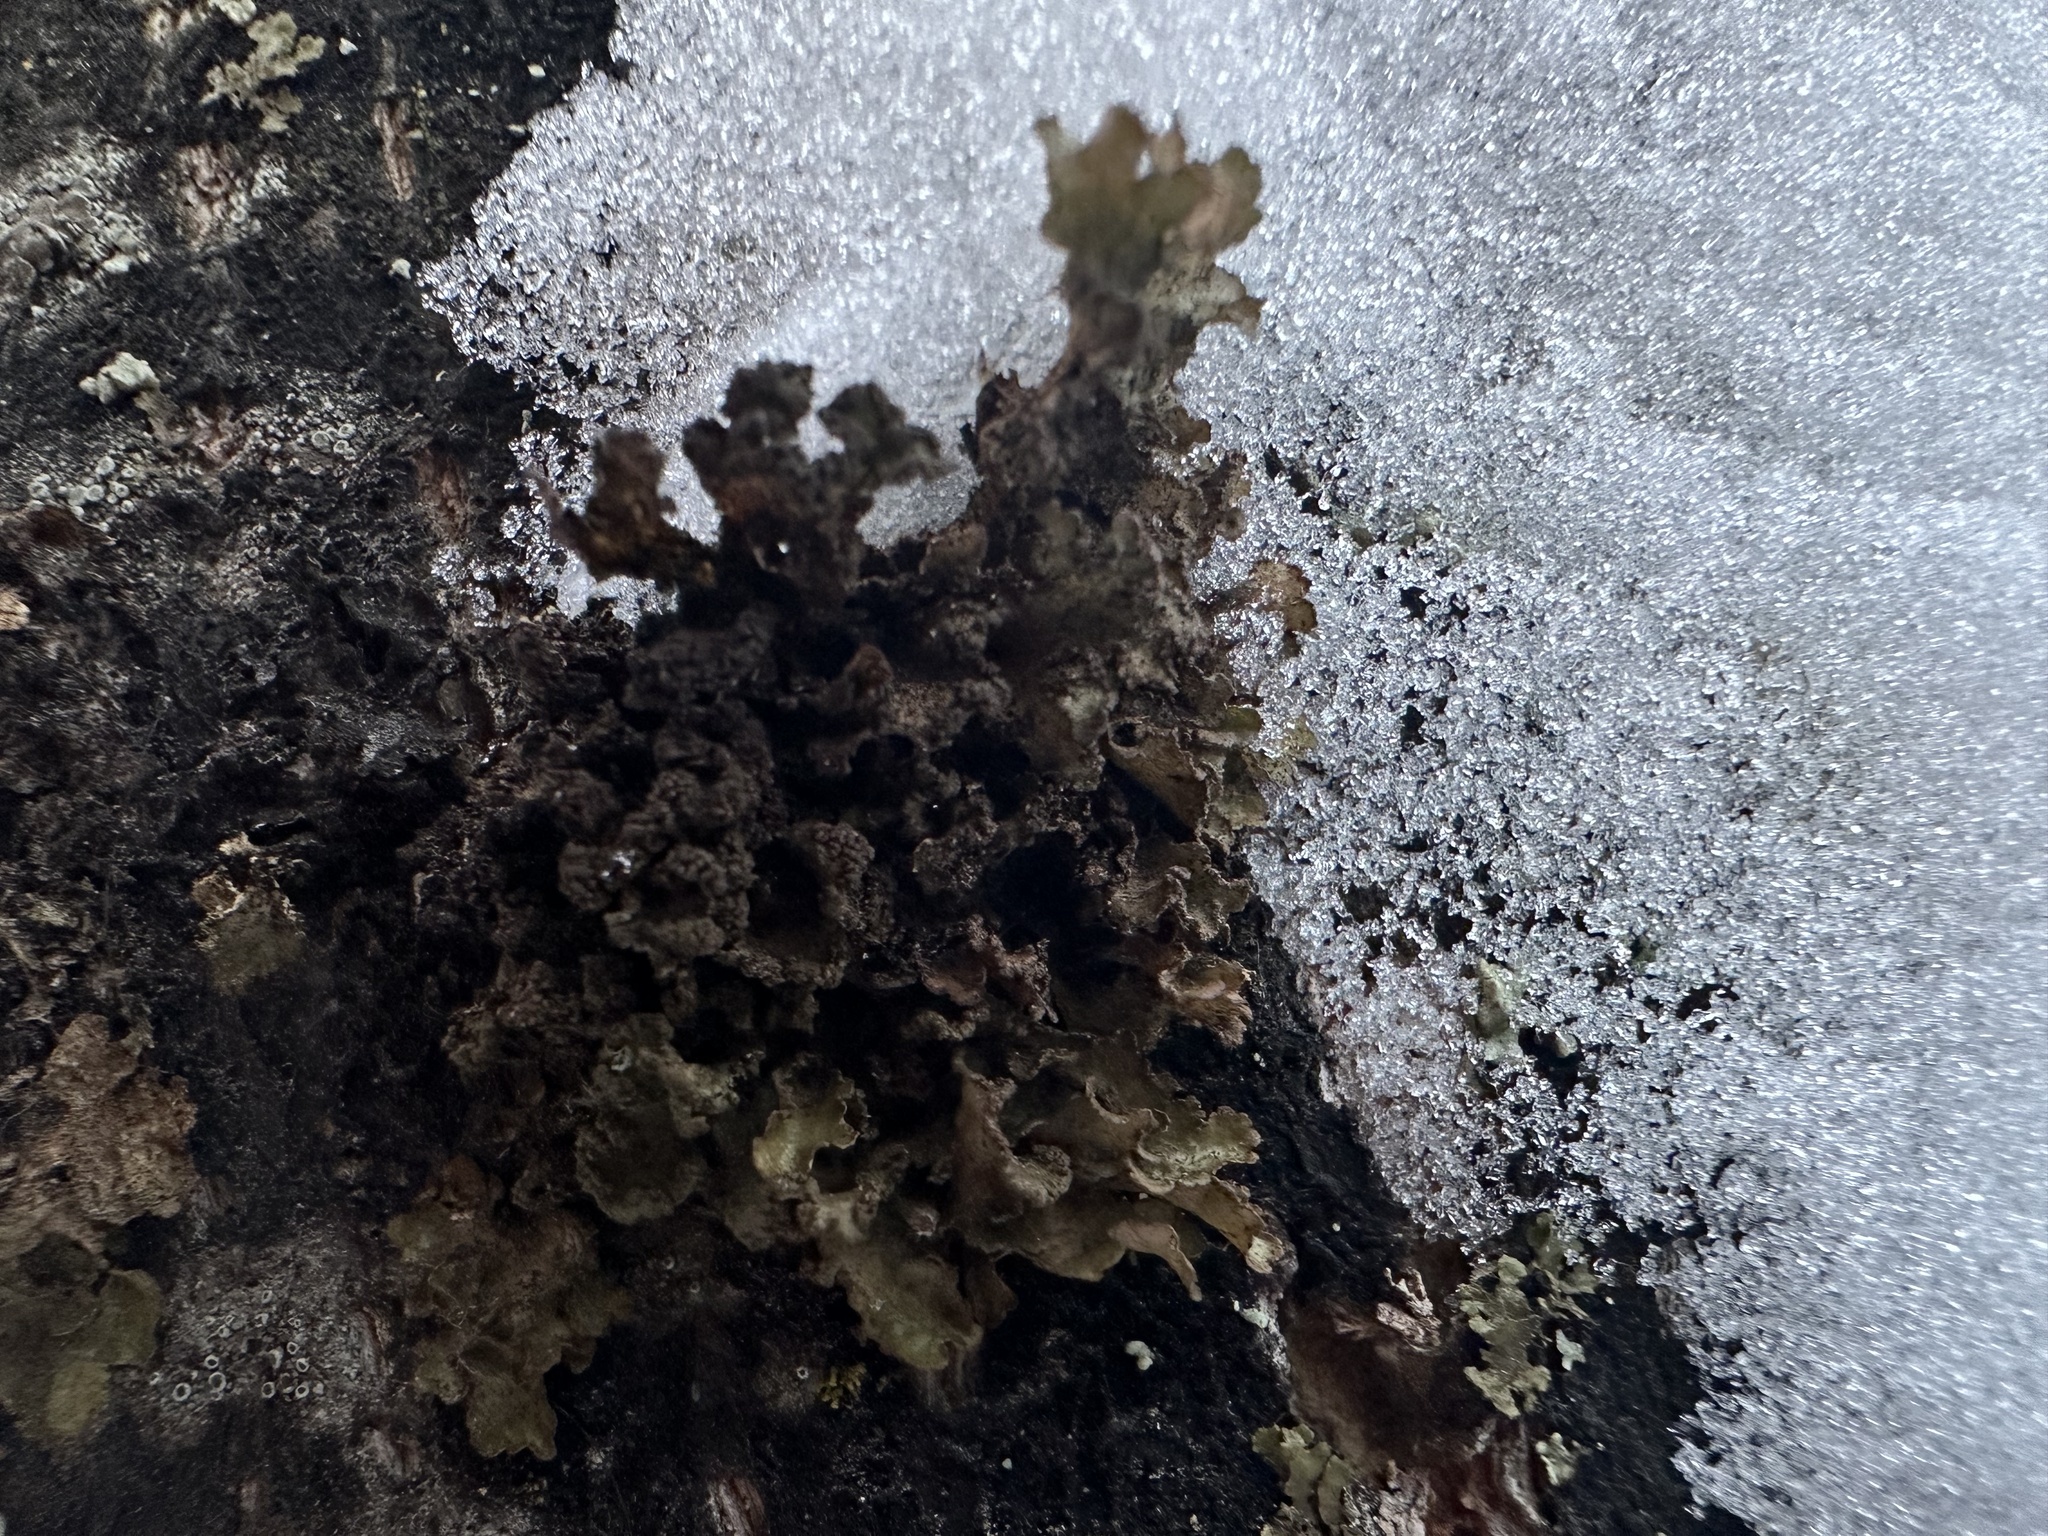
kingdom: Fungi
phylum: Ascomycota
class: Lecanoromycetes
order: Lecanorales
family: Parmeliaceae
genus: Nephromopsis
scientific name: Nephromopsis chlorophylla
